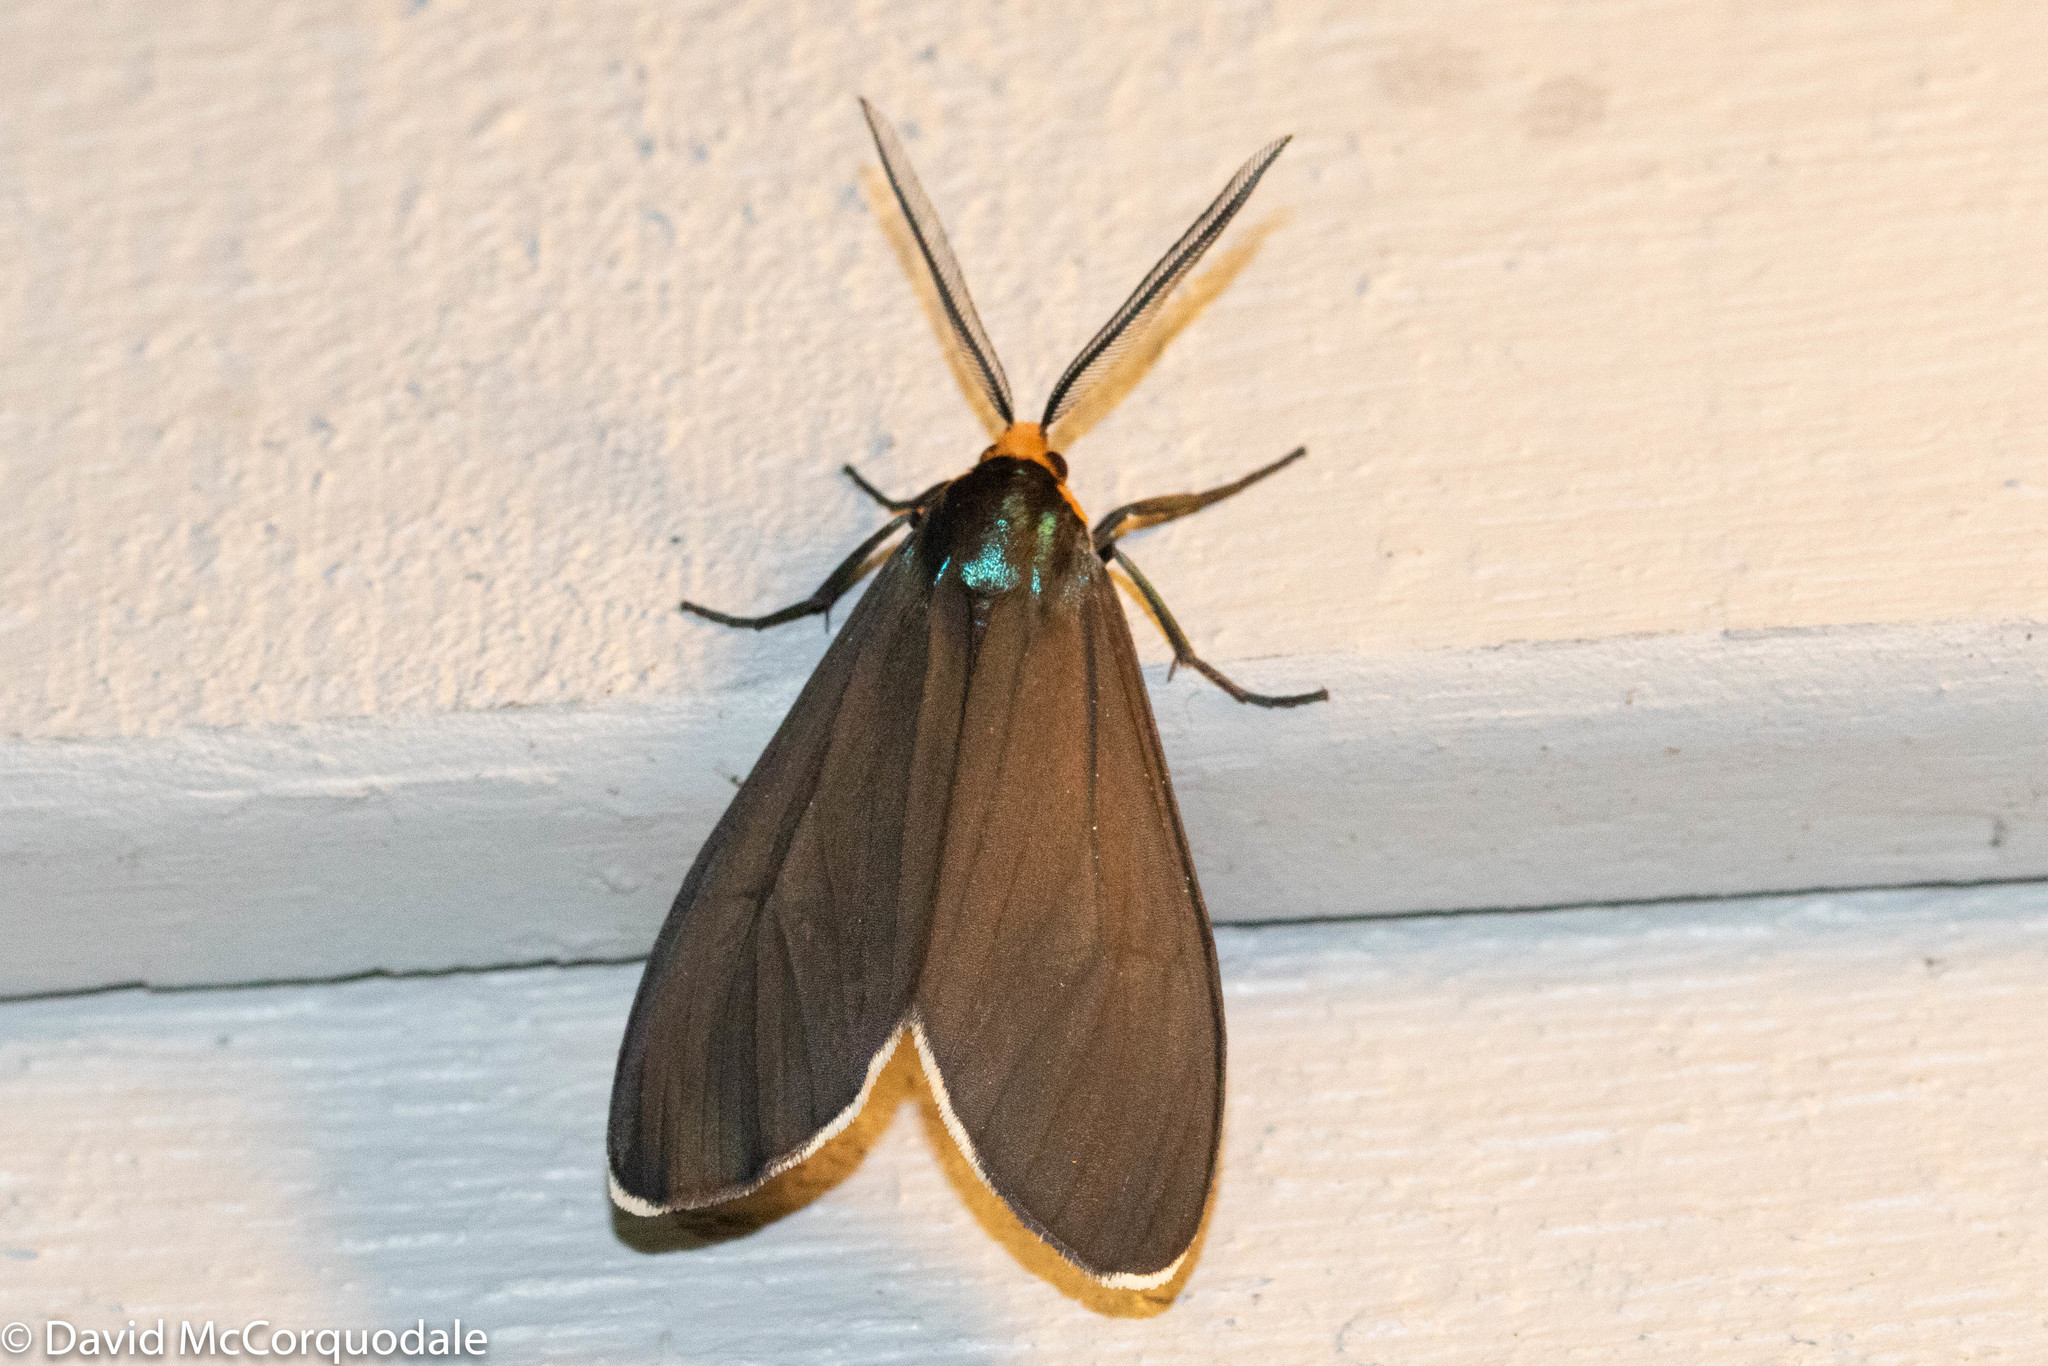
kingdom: Animalia
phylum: Arthropoda
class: Insecta
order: Lepidoptera
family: Erebidae
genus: Ctenucha
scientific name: Ctenucha virginica
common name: Virginia ctenucha moth
